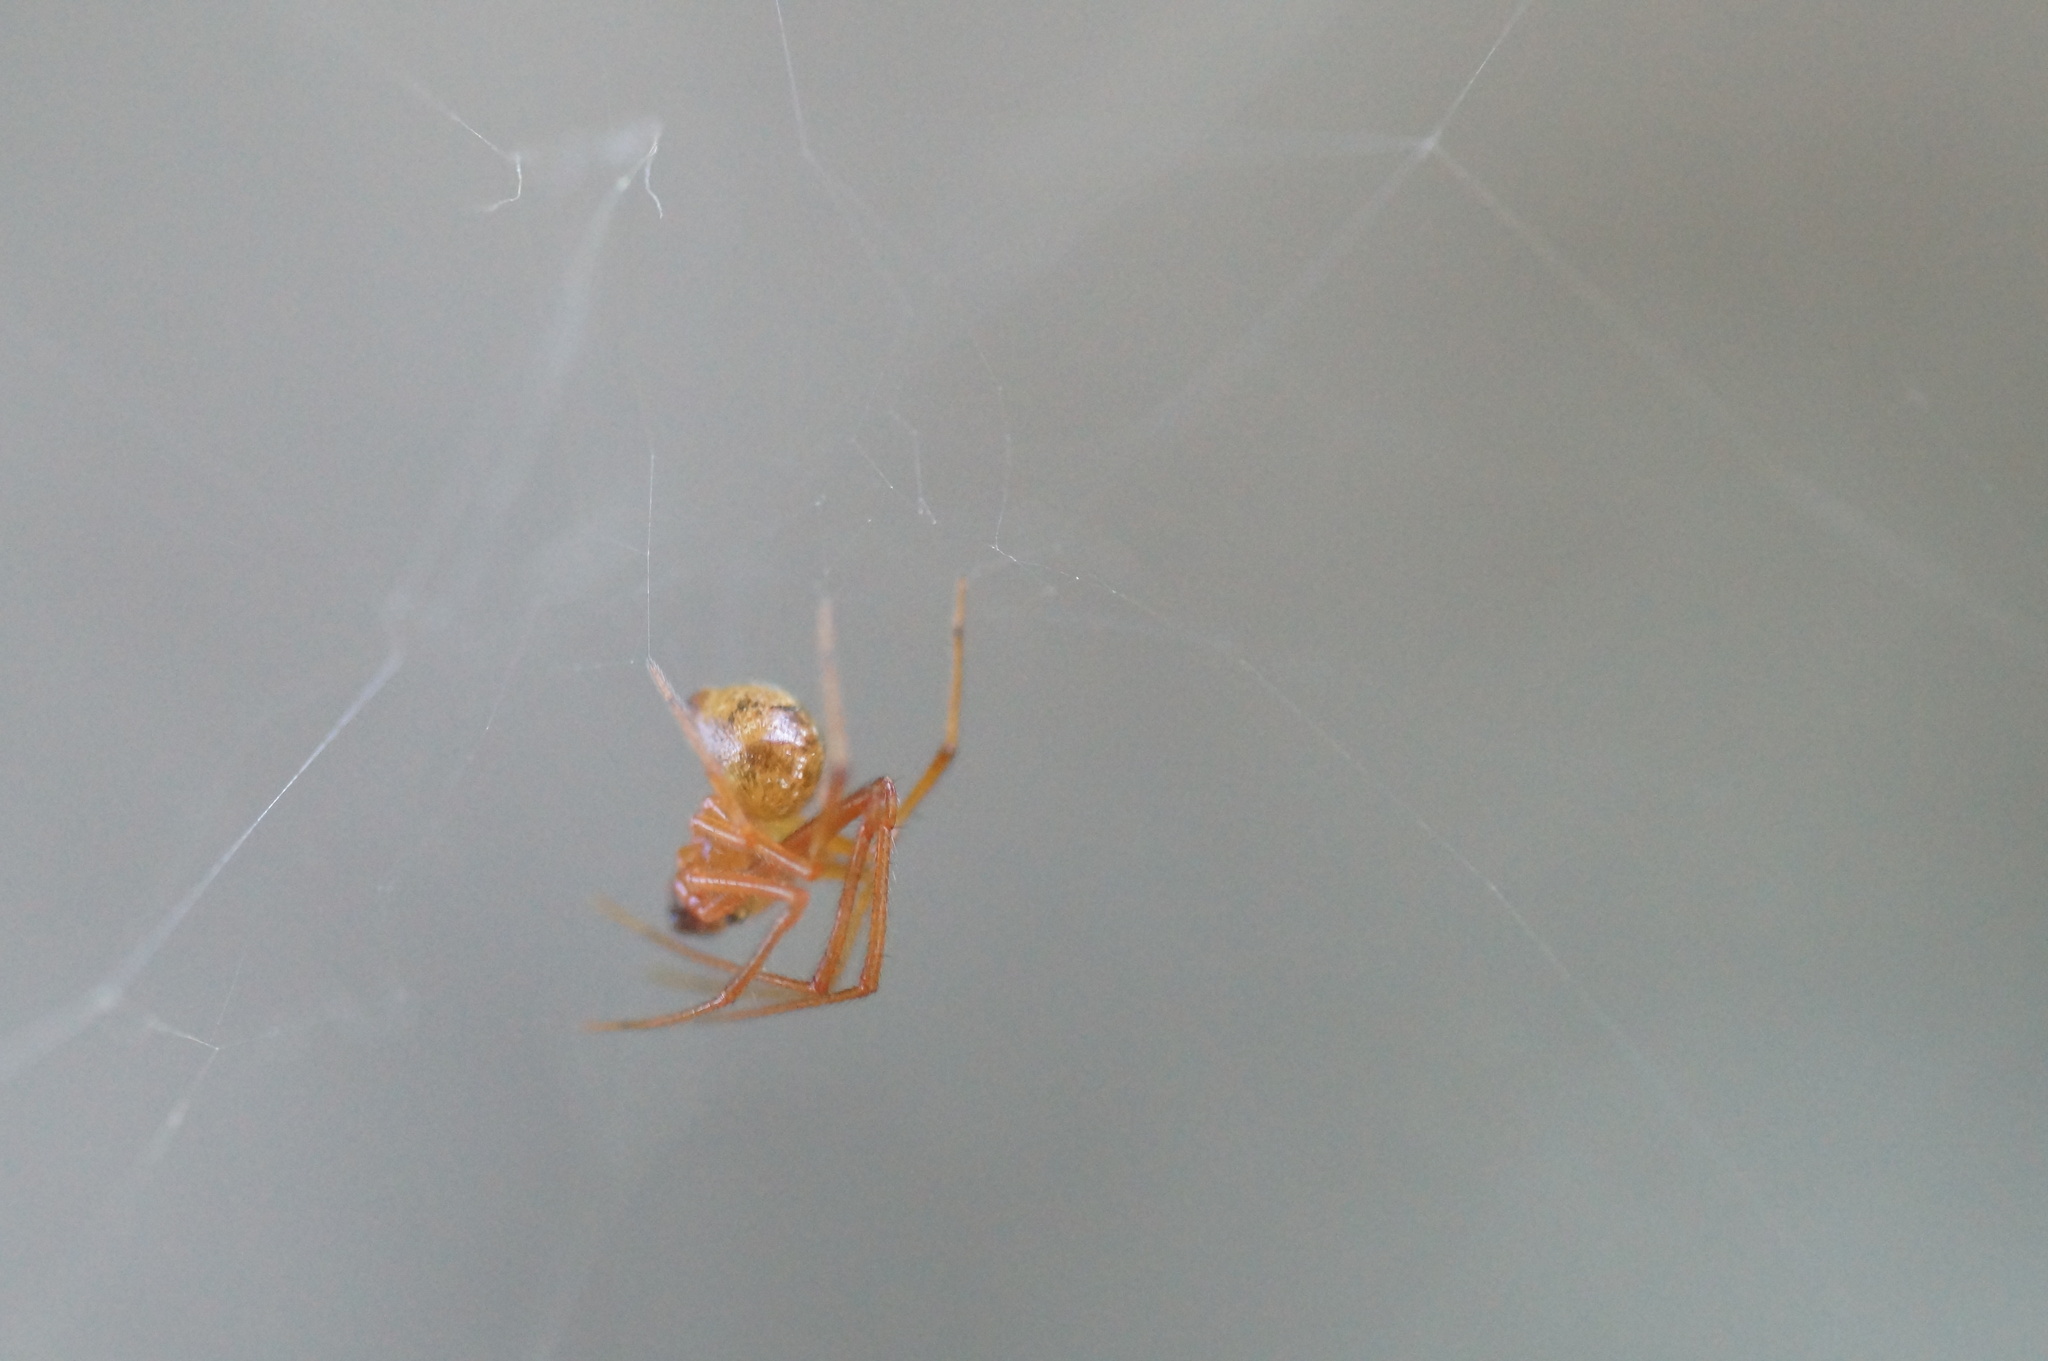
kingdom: Animalia
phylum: Arthropoda
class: Arachnida
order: Araneae
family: Theridiidae
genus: Parasteatoda
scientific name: Parasteatoda lunata
